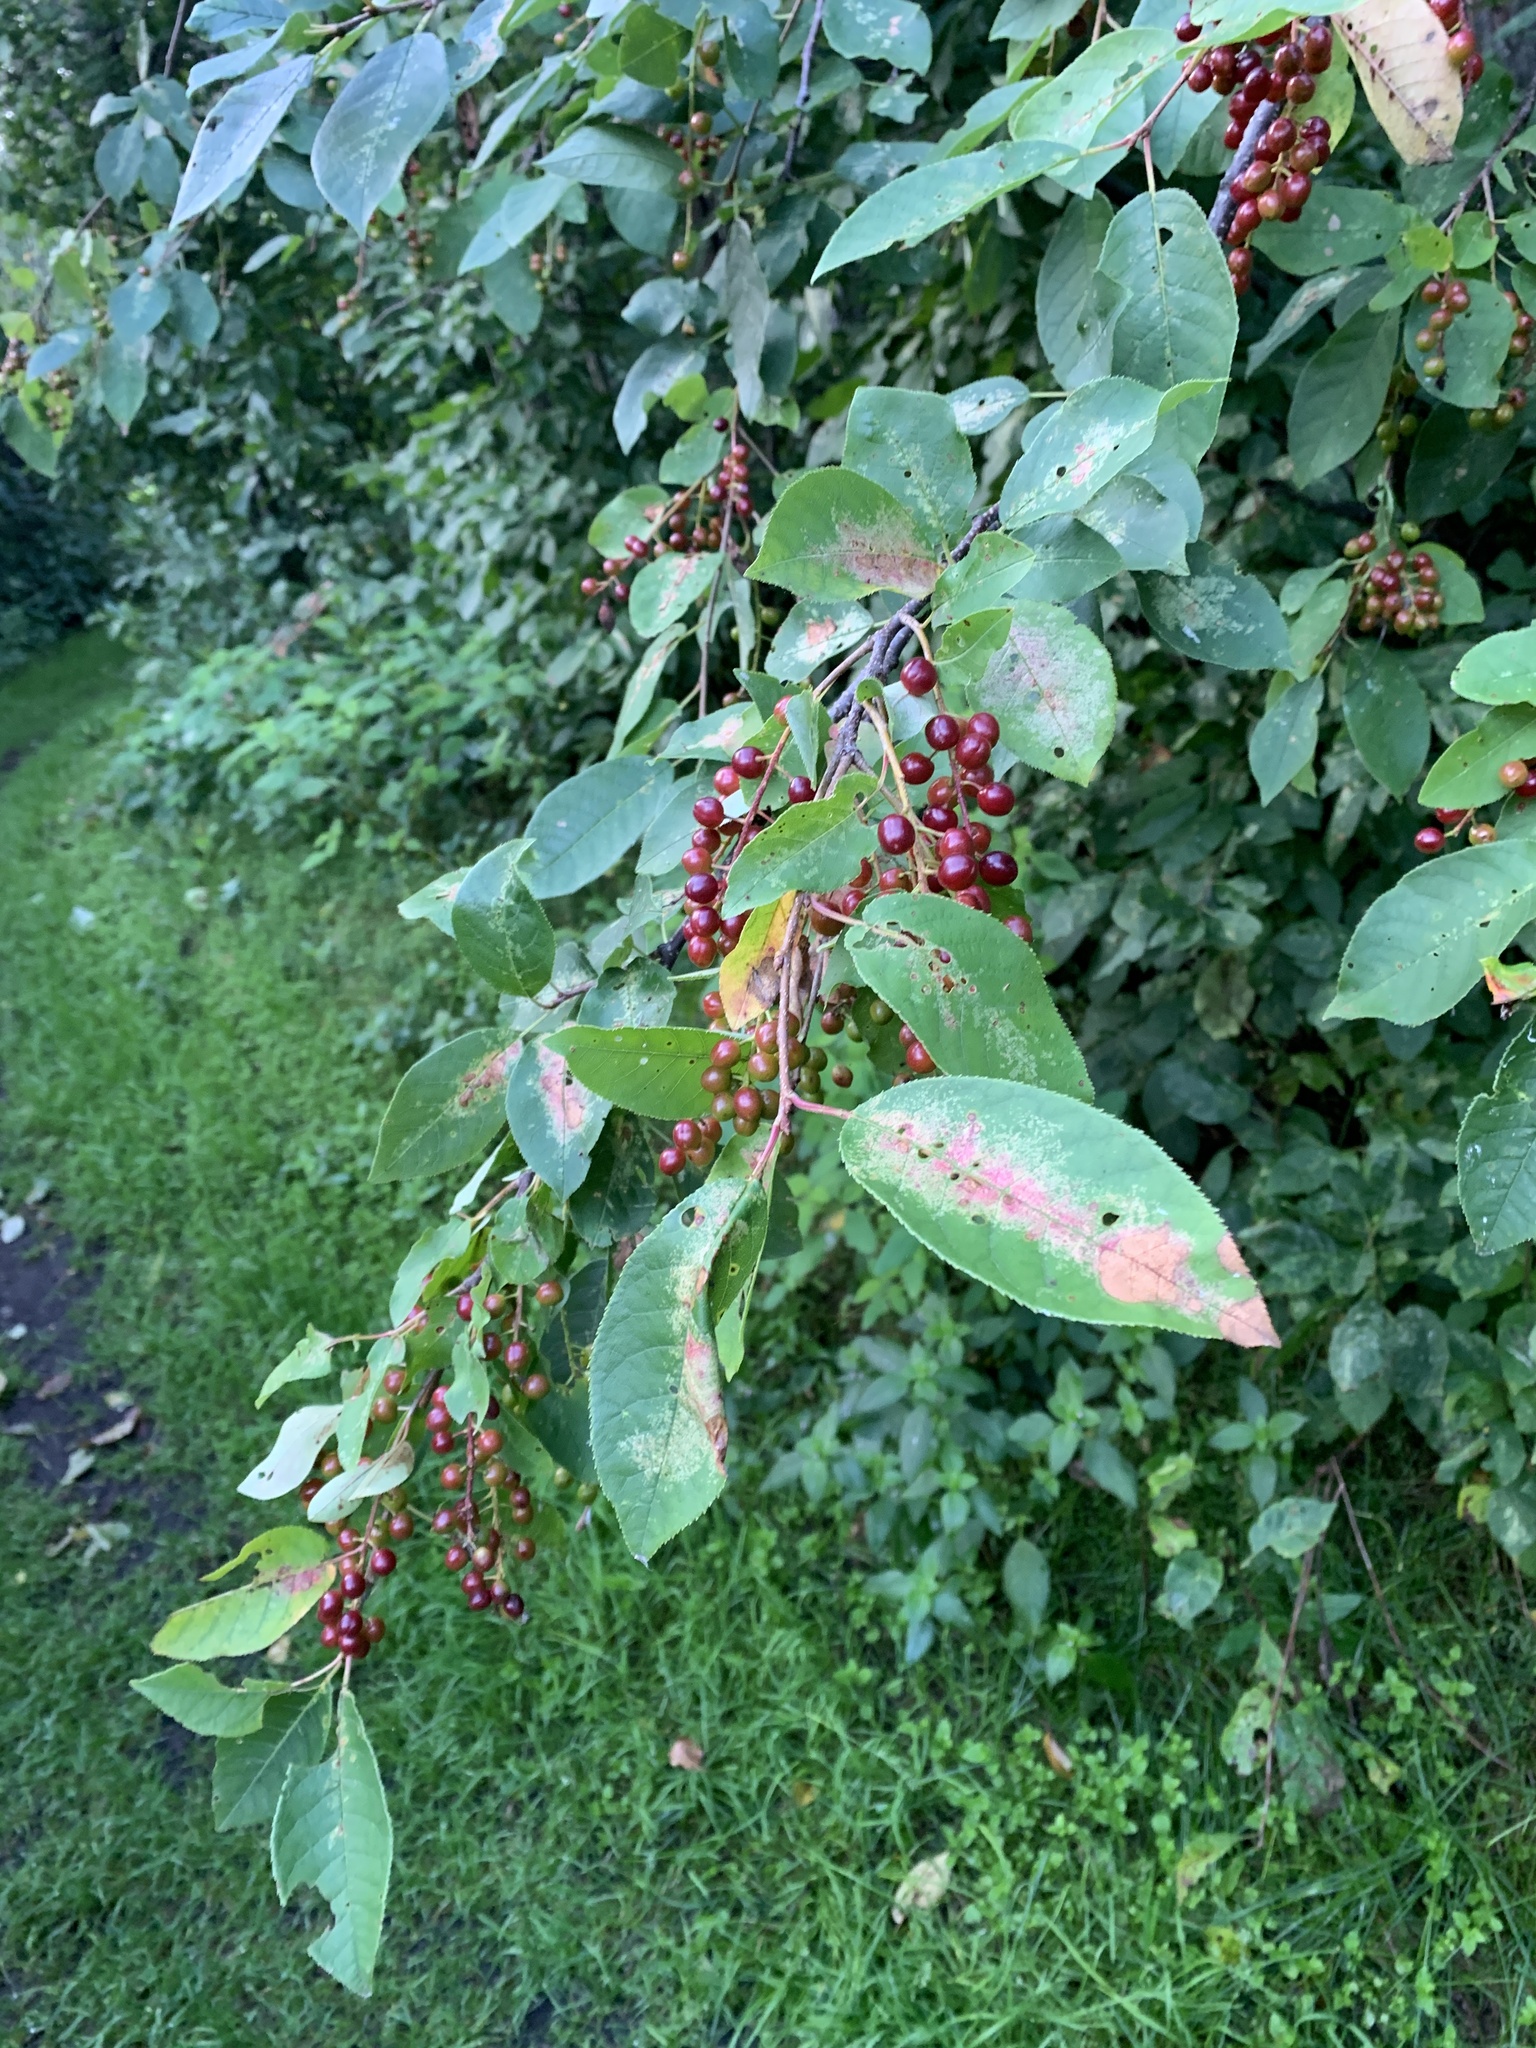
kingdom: Plantae
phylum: Tracheophyta
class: Magnoliopsida
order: Rosales
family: Rosaceae
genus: Prunus
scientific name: Prunus virginiana
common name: Chokecherry
